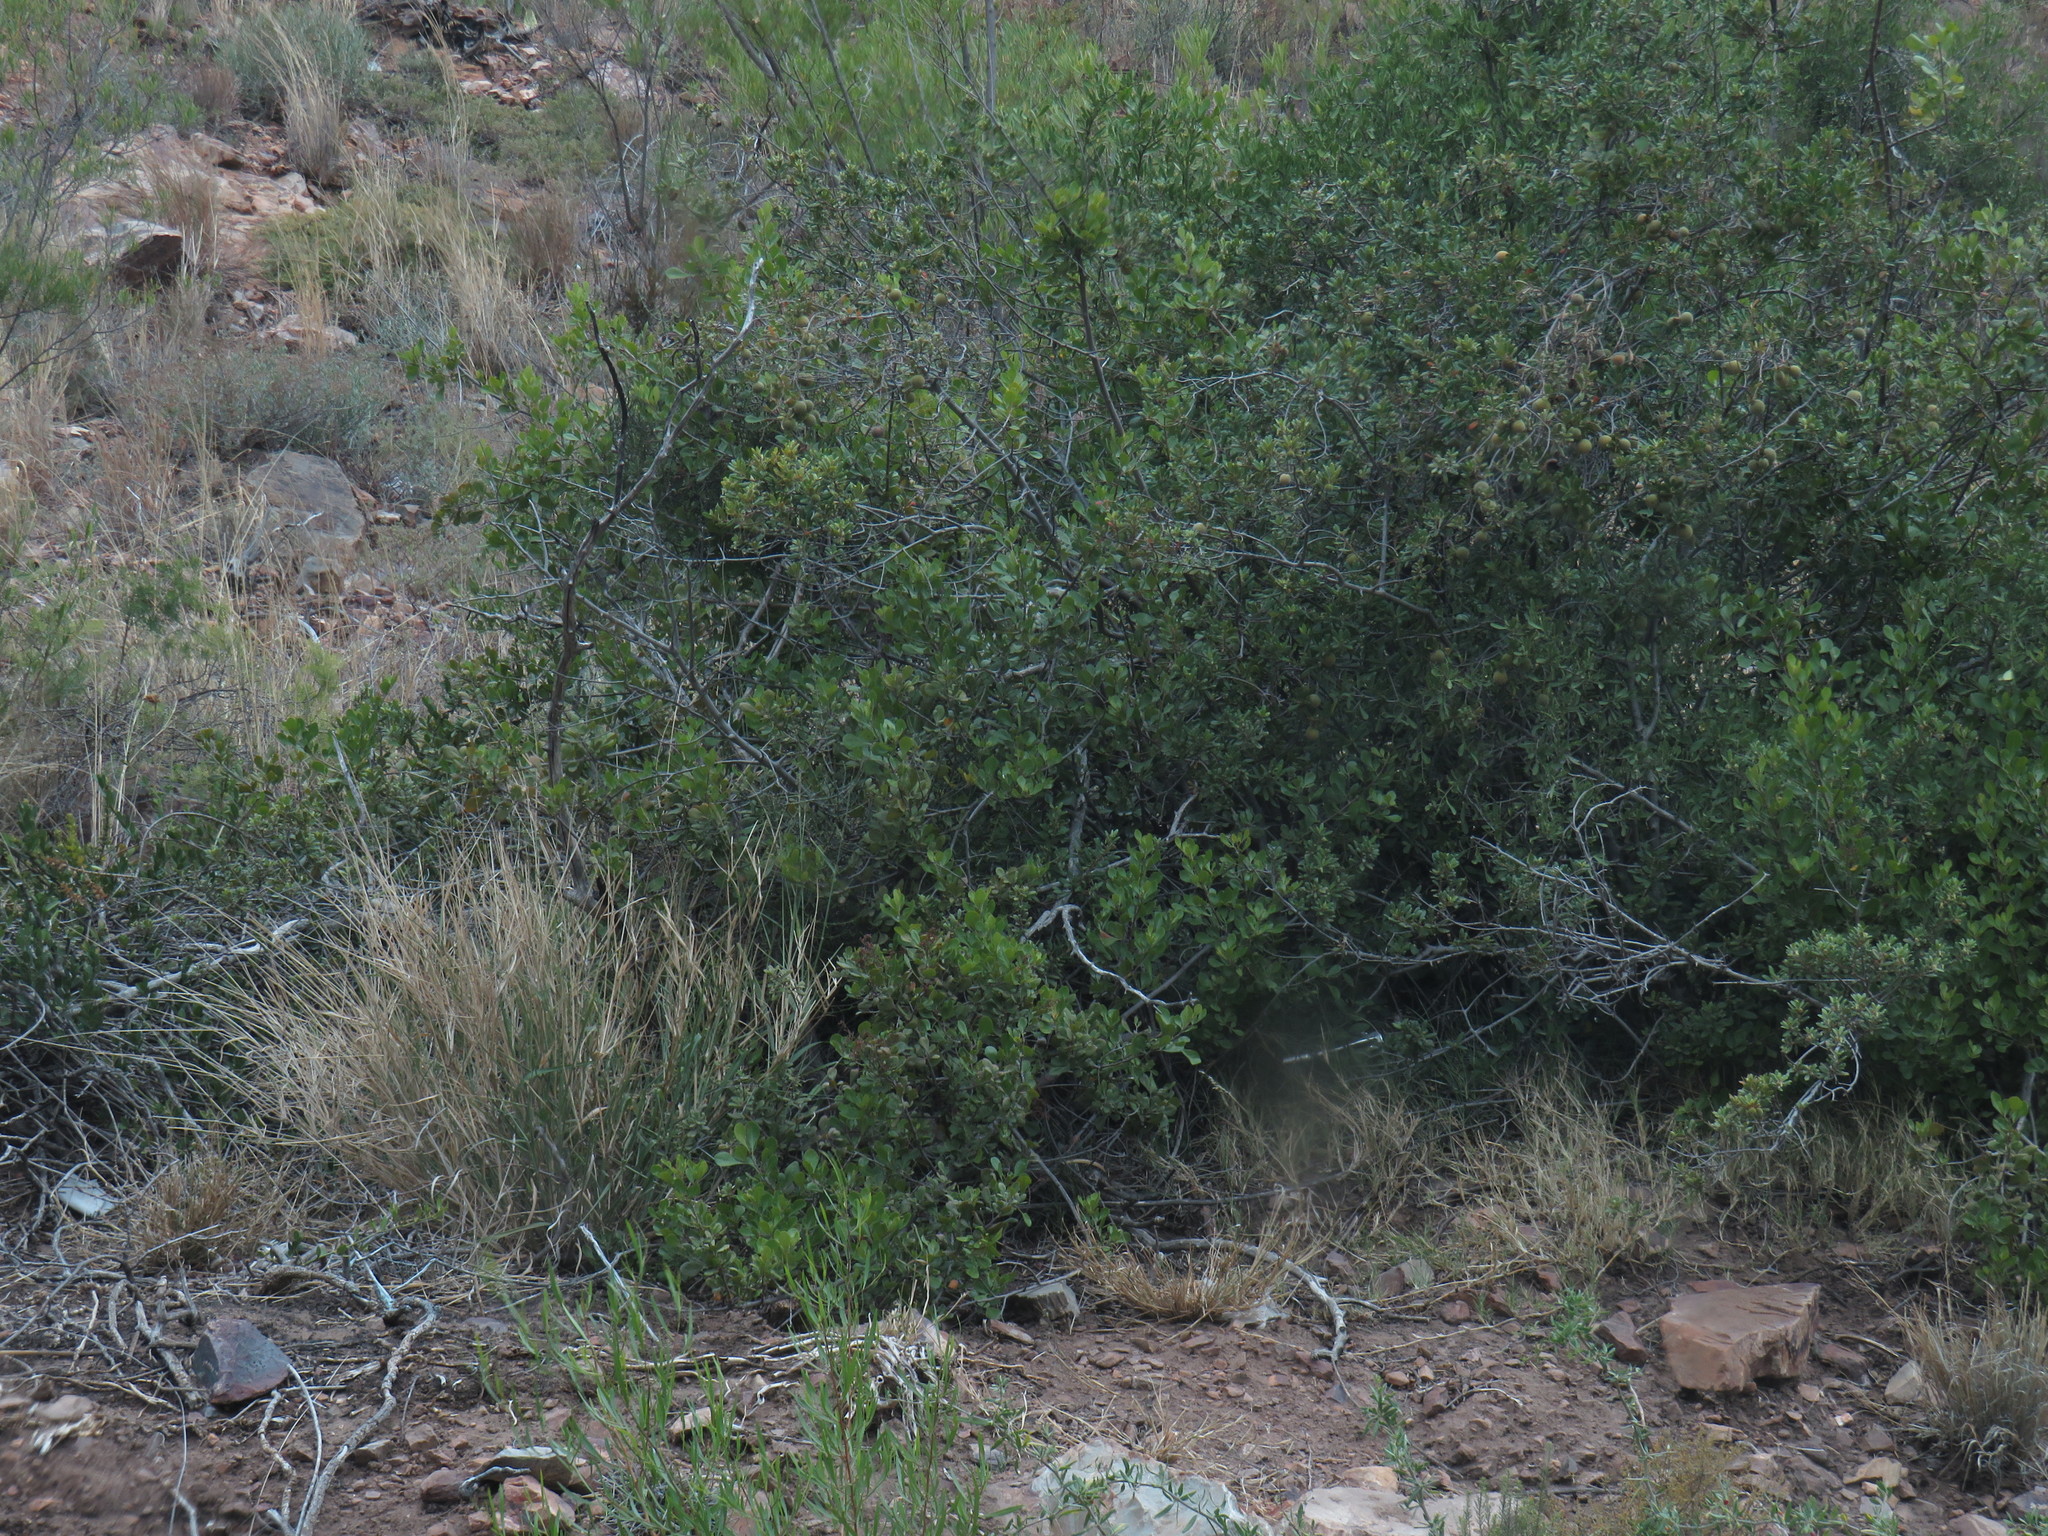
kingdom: Plantae
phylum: Tracheophyta
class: Magnoliopsida
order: Sapindales
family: Anacardiaceae
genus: Searsia
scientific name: Searsia lucida
